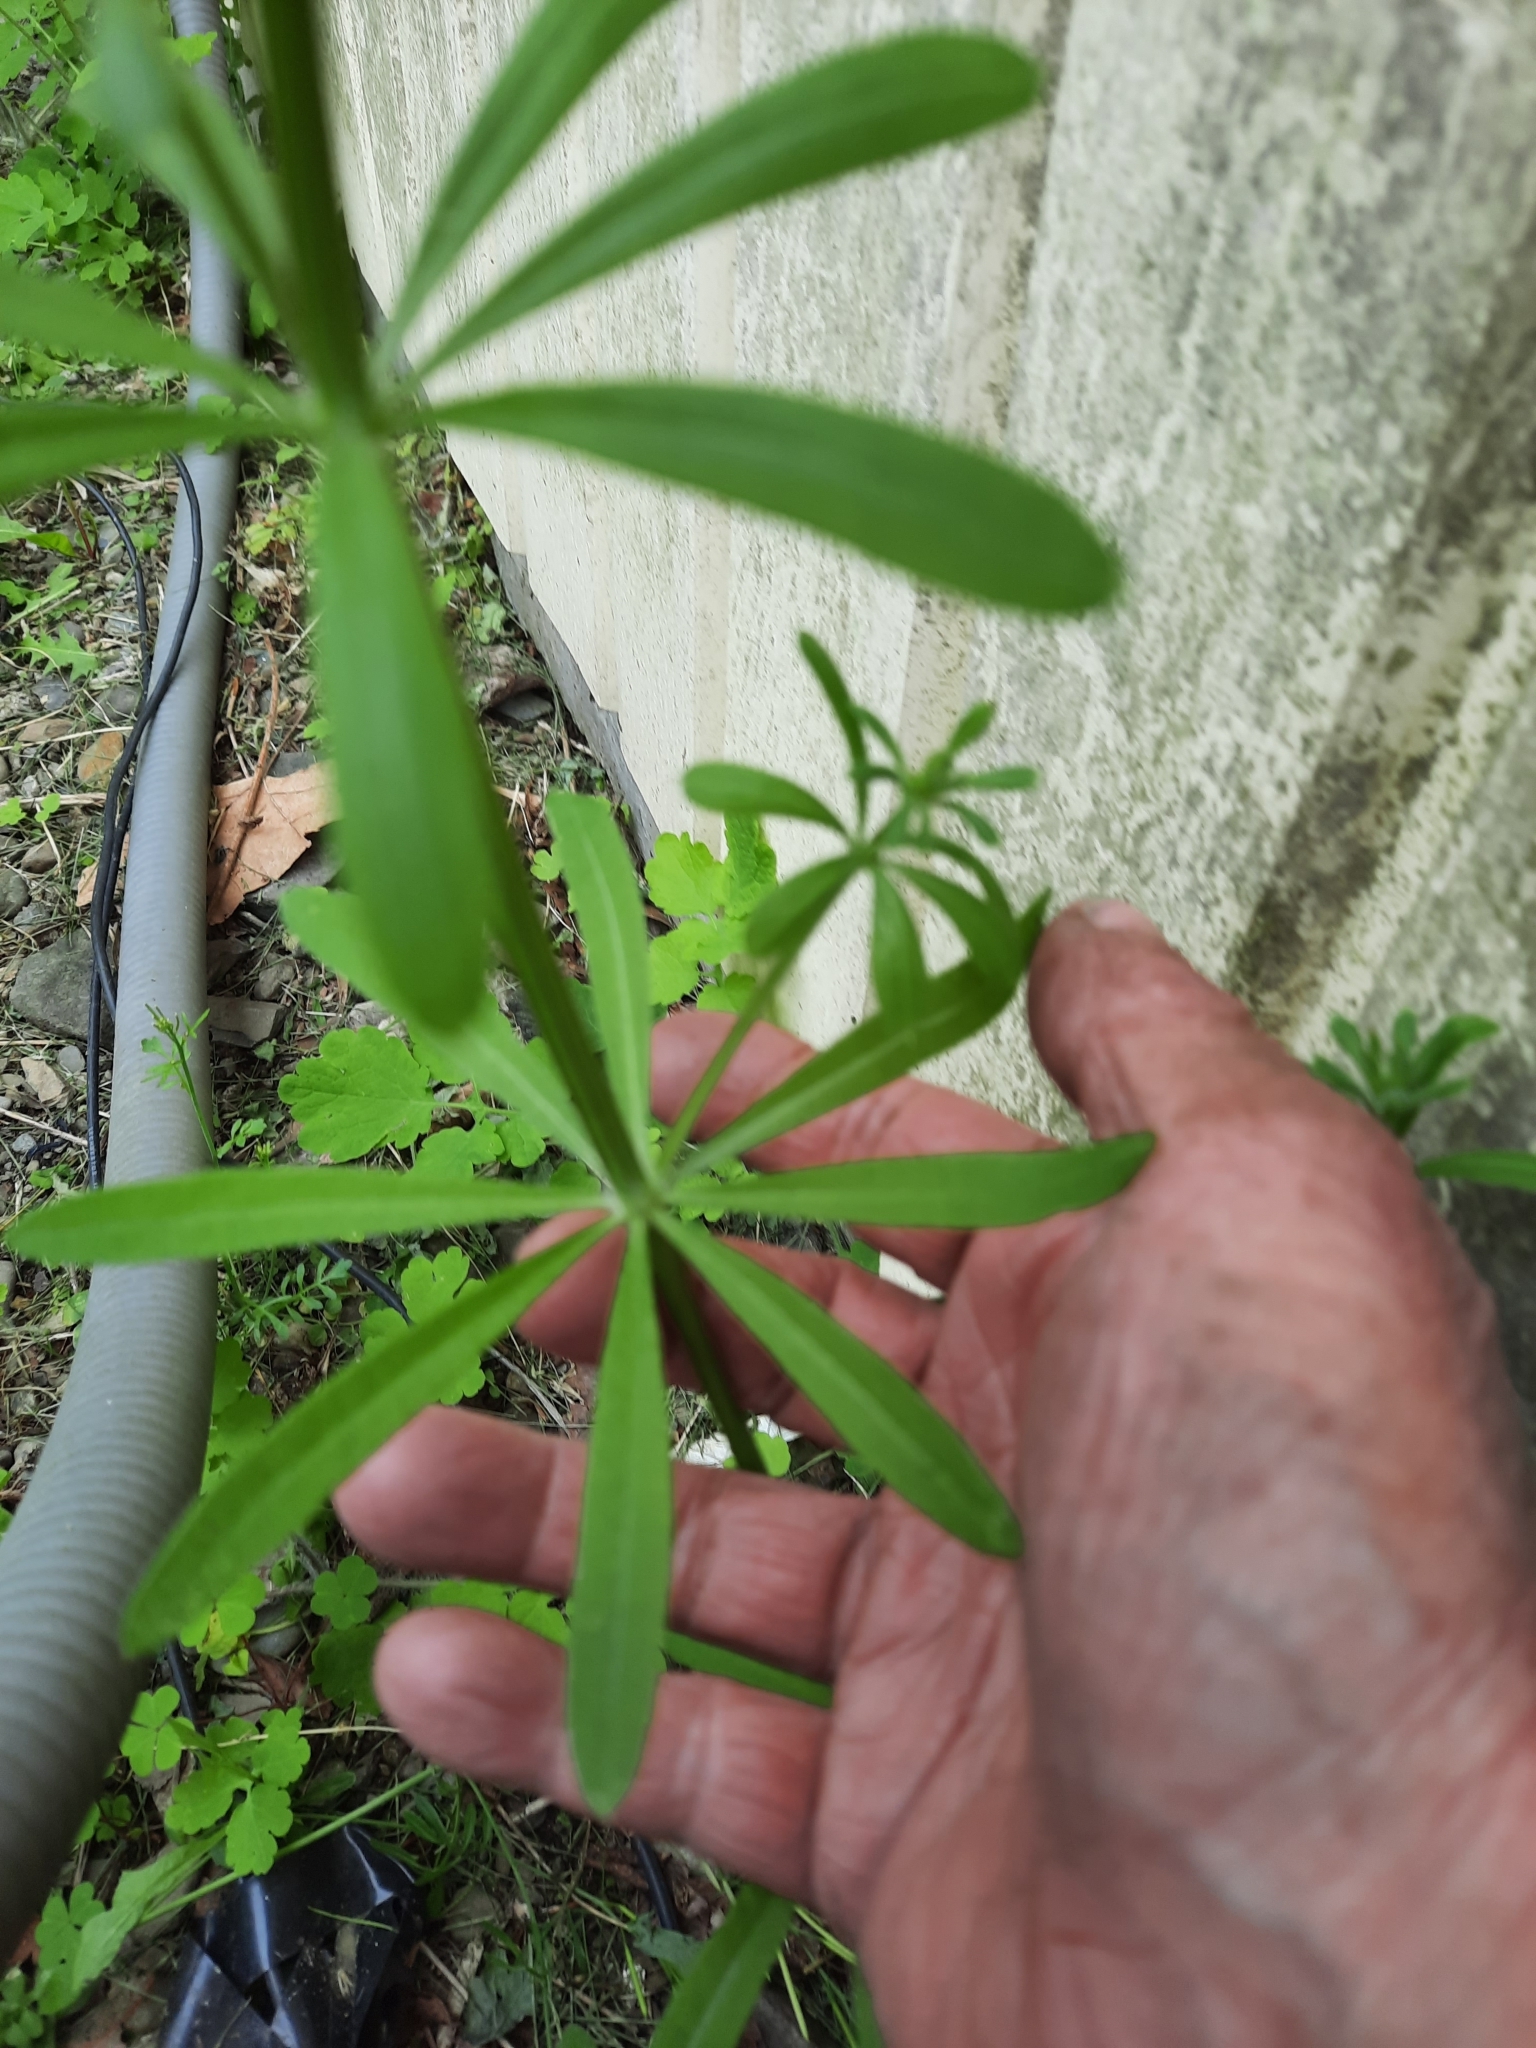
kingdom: Plantae
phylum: Tracheophyta
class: Magnoliopsida
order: Gentianales
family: Rubiaceae
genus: Galium
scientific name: Galium aparine
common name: Cleavers
